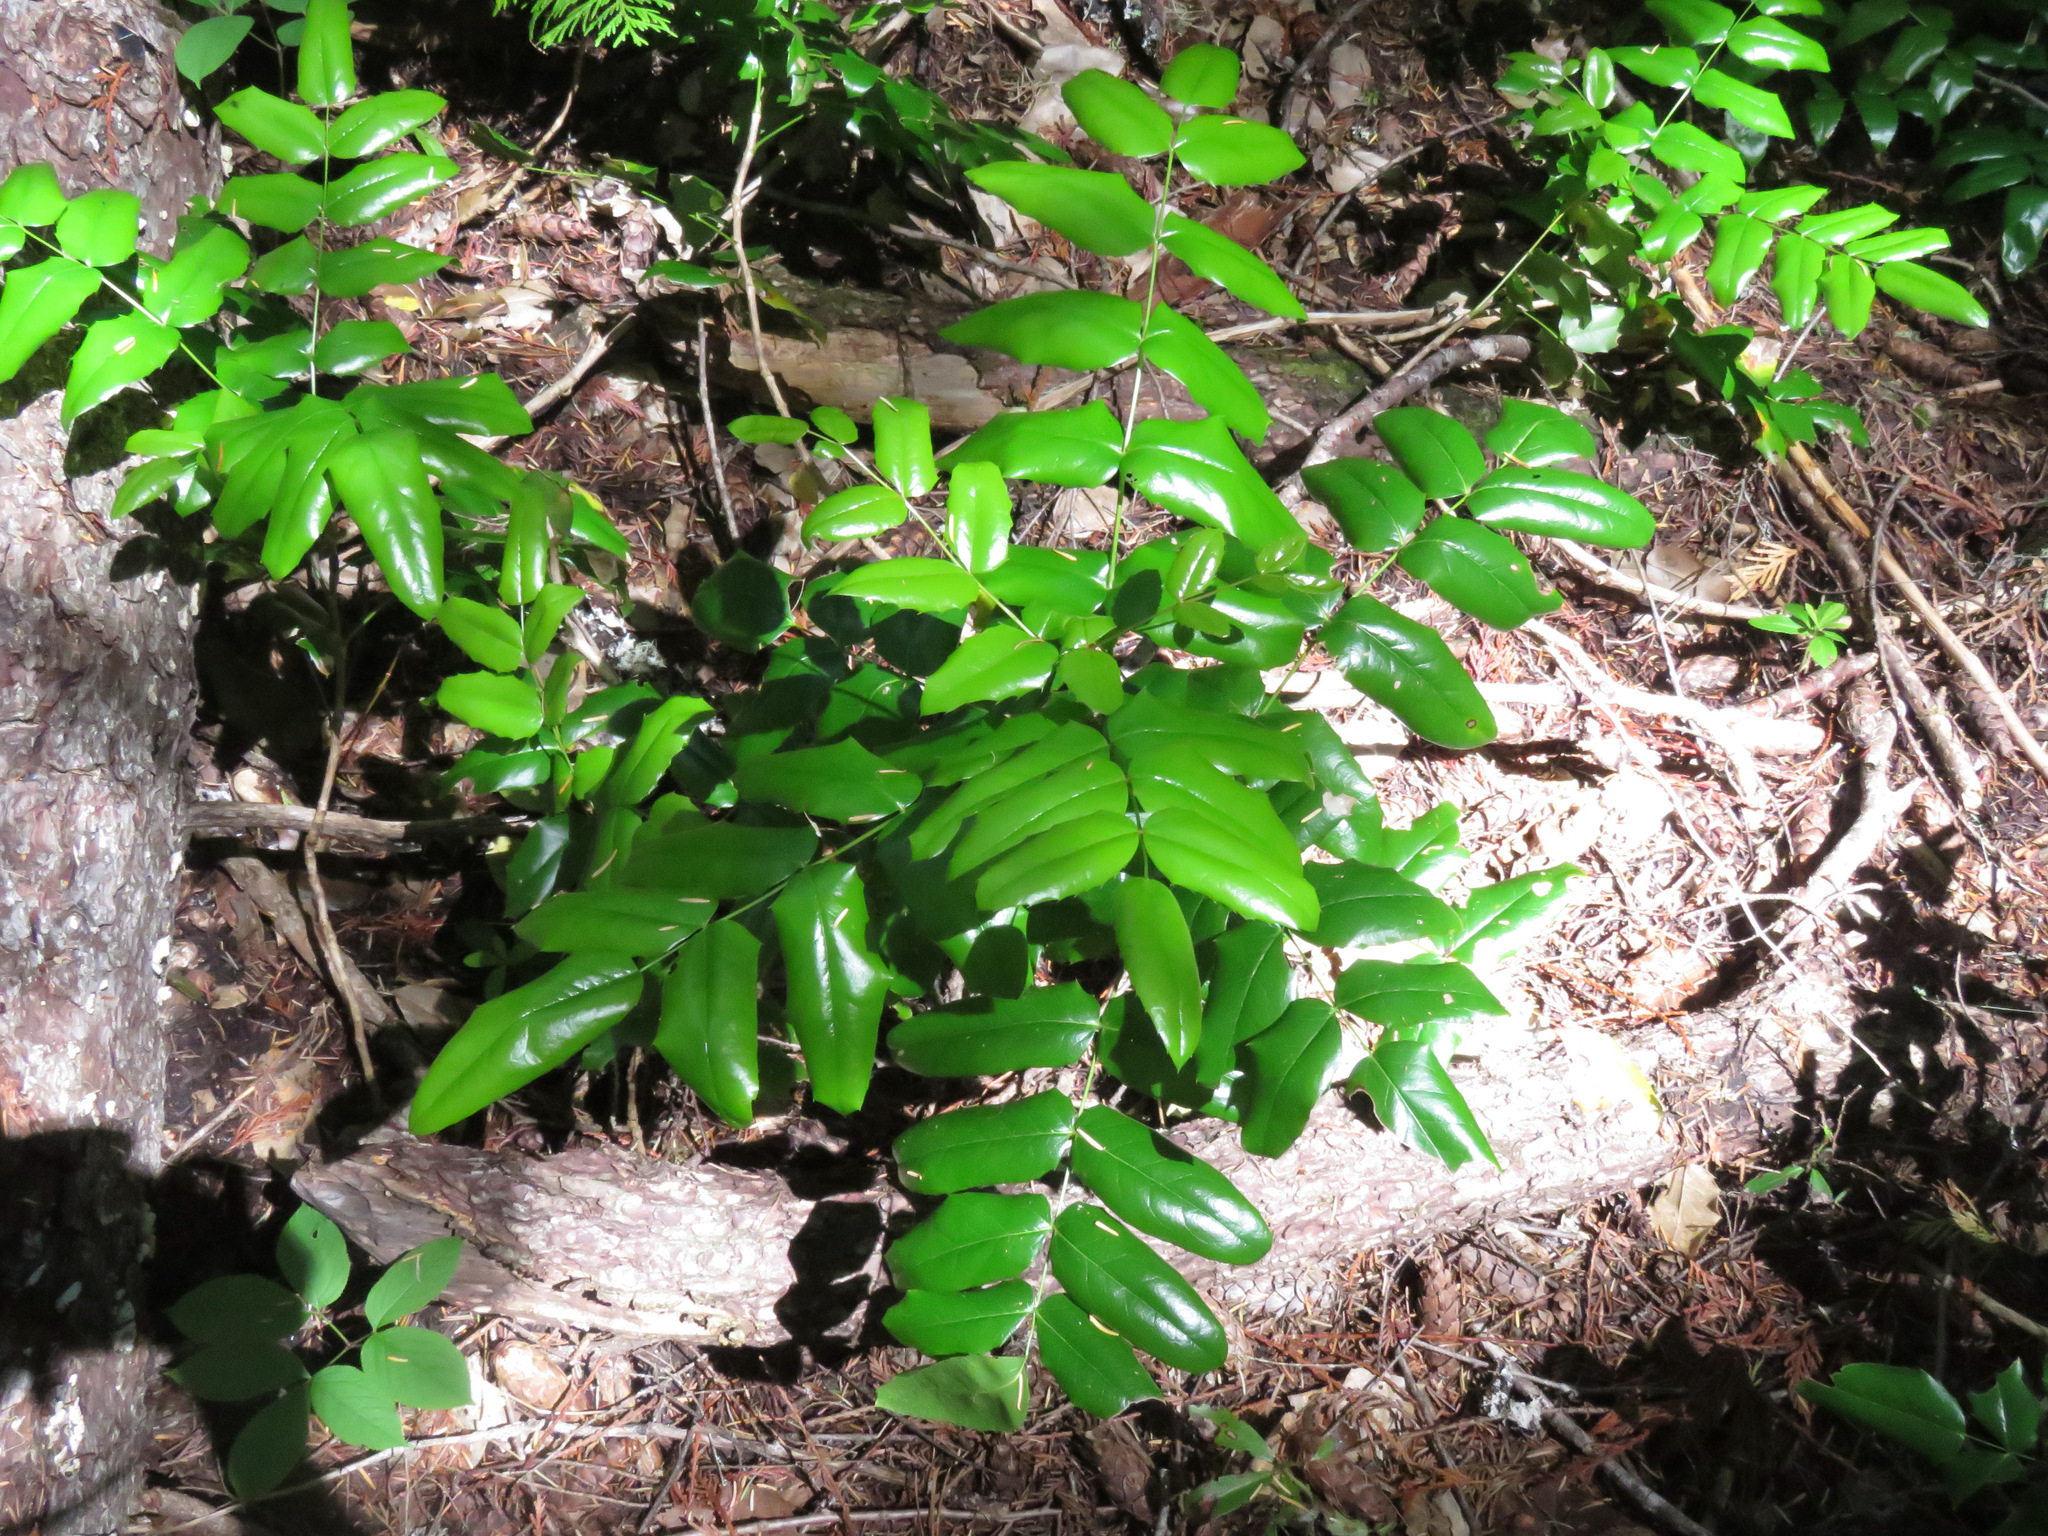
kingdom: Plantae
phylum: Tracheophyta
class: Magnoliopsida
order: Ranunculales
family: Berberidaceae
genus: Mahonia
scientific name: Mahonia aquifolium
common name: Oregon-grape
